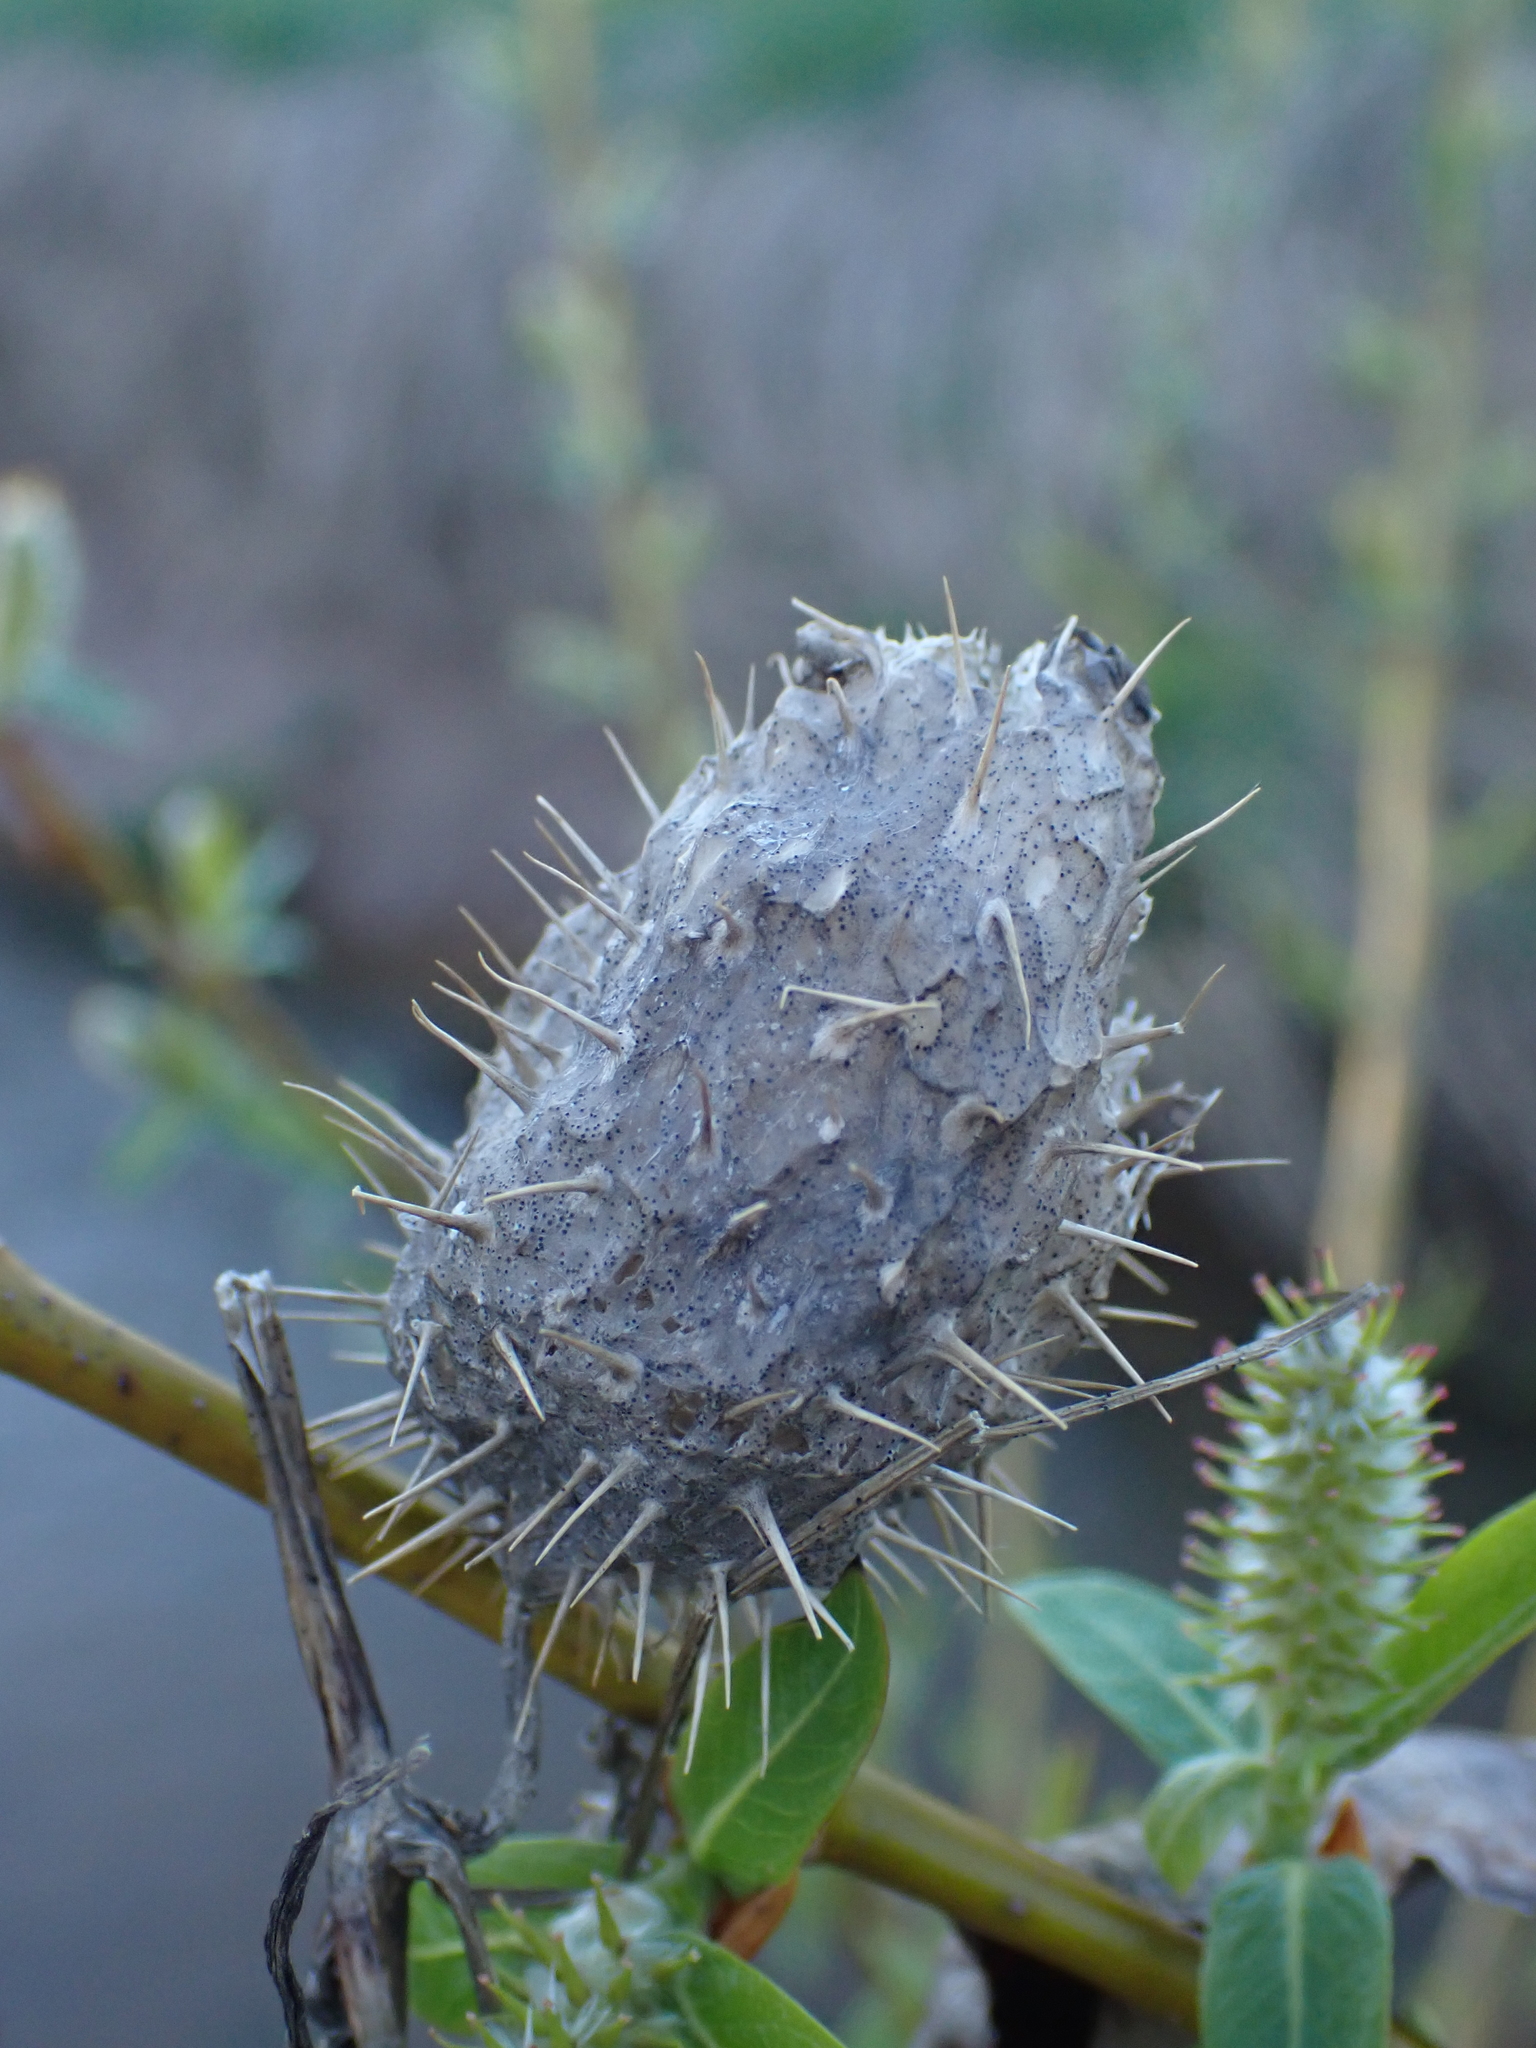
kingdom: Plantae
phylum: Tracheophyta
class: Magnoliopsida
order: Cucurbitales
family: Cucurbitaceae
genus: Echinocystis
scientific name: Echinocystis lobata
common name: Wild cucumber
